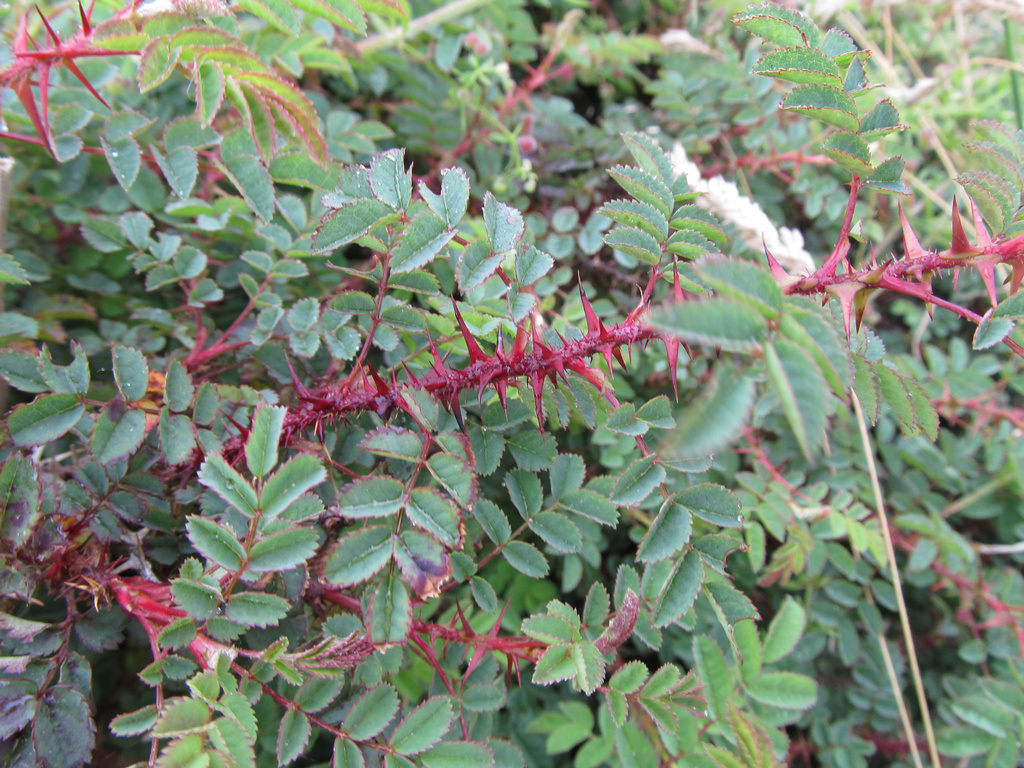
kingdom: Plantae
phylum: Tracheophyta
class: Magnoliopsida
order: Rosales
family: Rosaceae
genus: Rosa
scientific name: Rosa spinosissima
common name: Burnet rose
